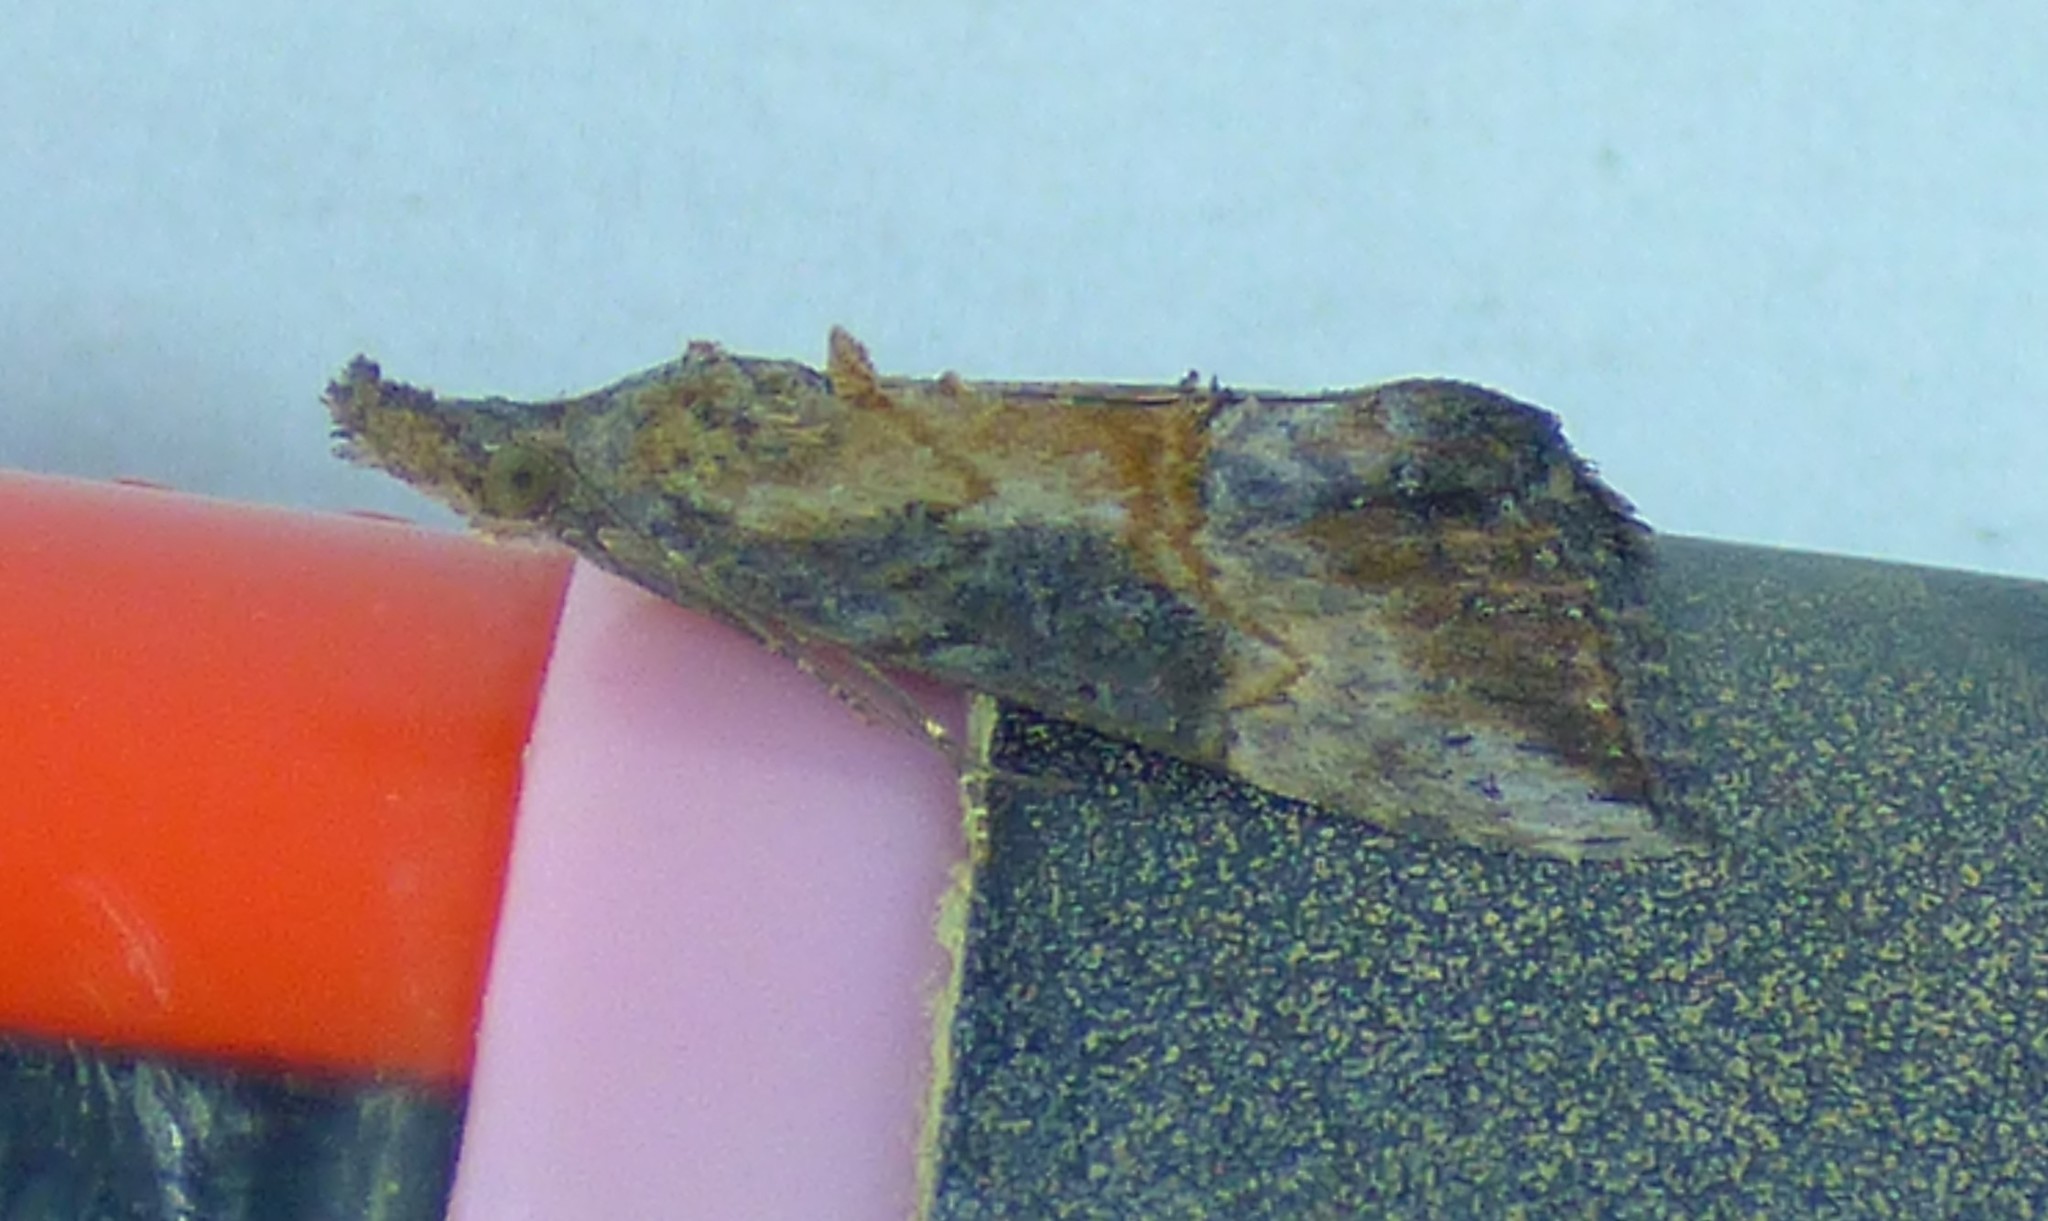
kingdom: Animalia
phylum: Arthropoda
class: Insecta
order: Lepidoptera
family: Erebidae
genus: Hypena
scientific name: Hypena scabra
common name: Green cloverworm
